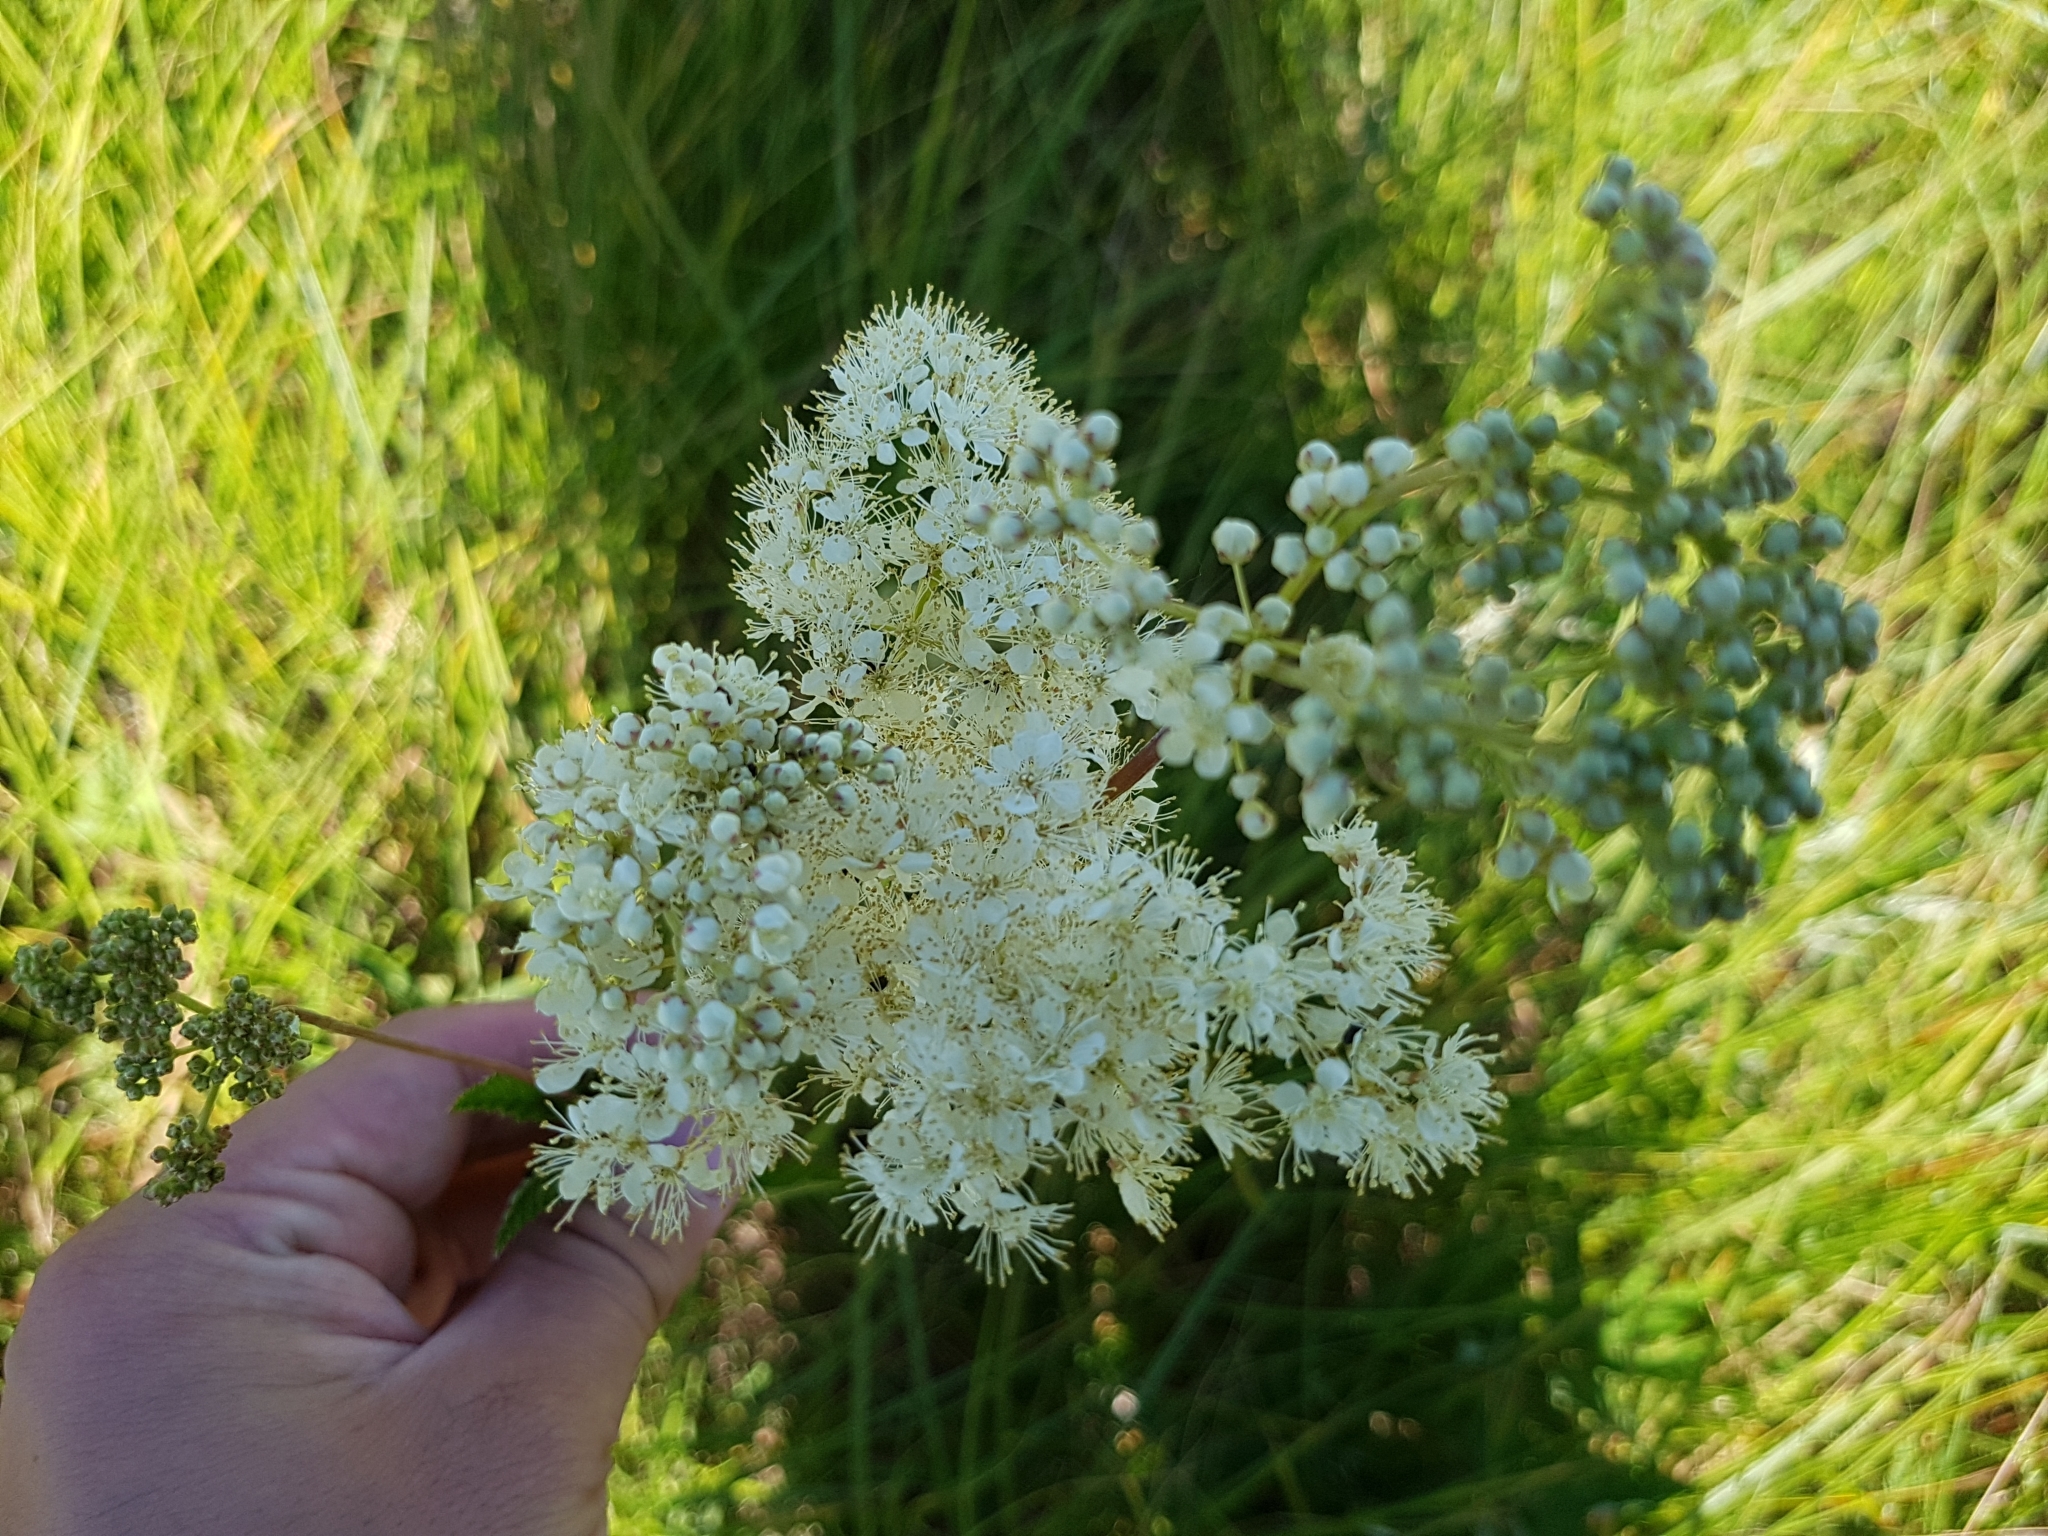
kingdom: Plantae
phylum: Tracheophyta
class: Magnoliopsida
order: Rosales
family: Rosaceae
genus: Filipendula
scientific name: Filipendula ulmaria
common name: Meadowsweet
